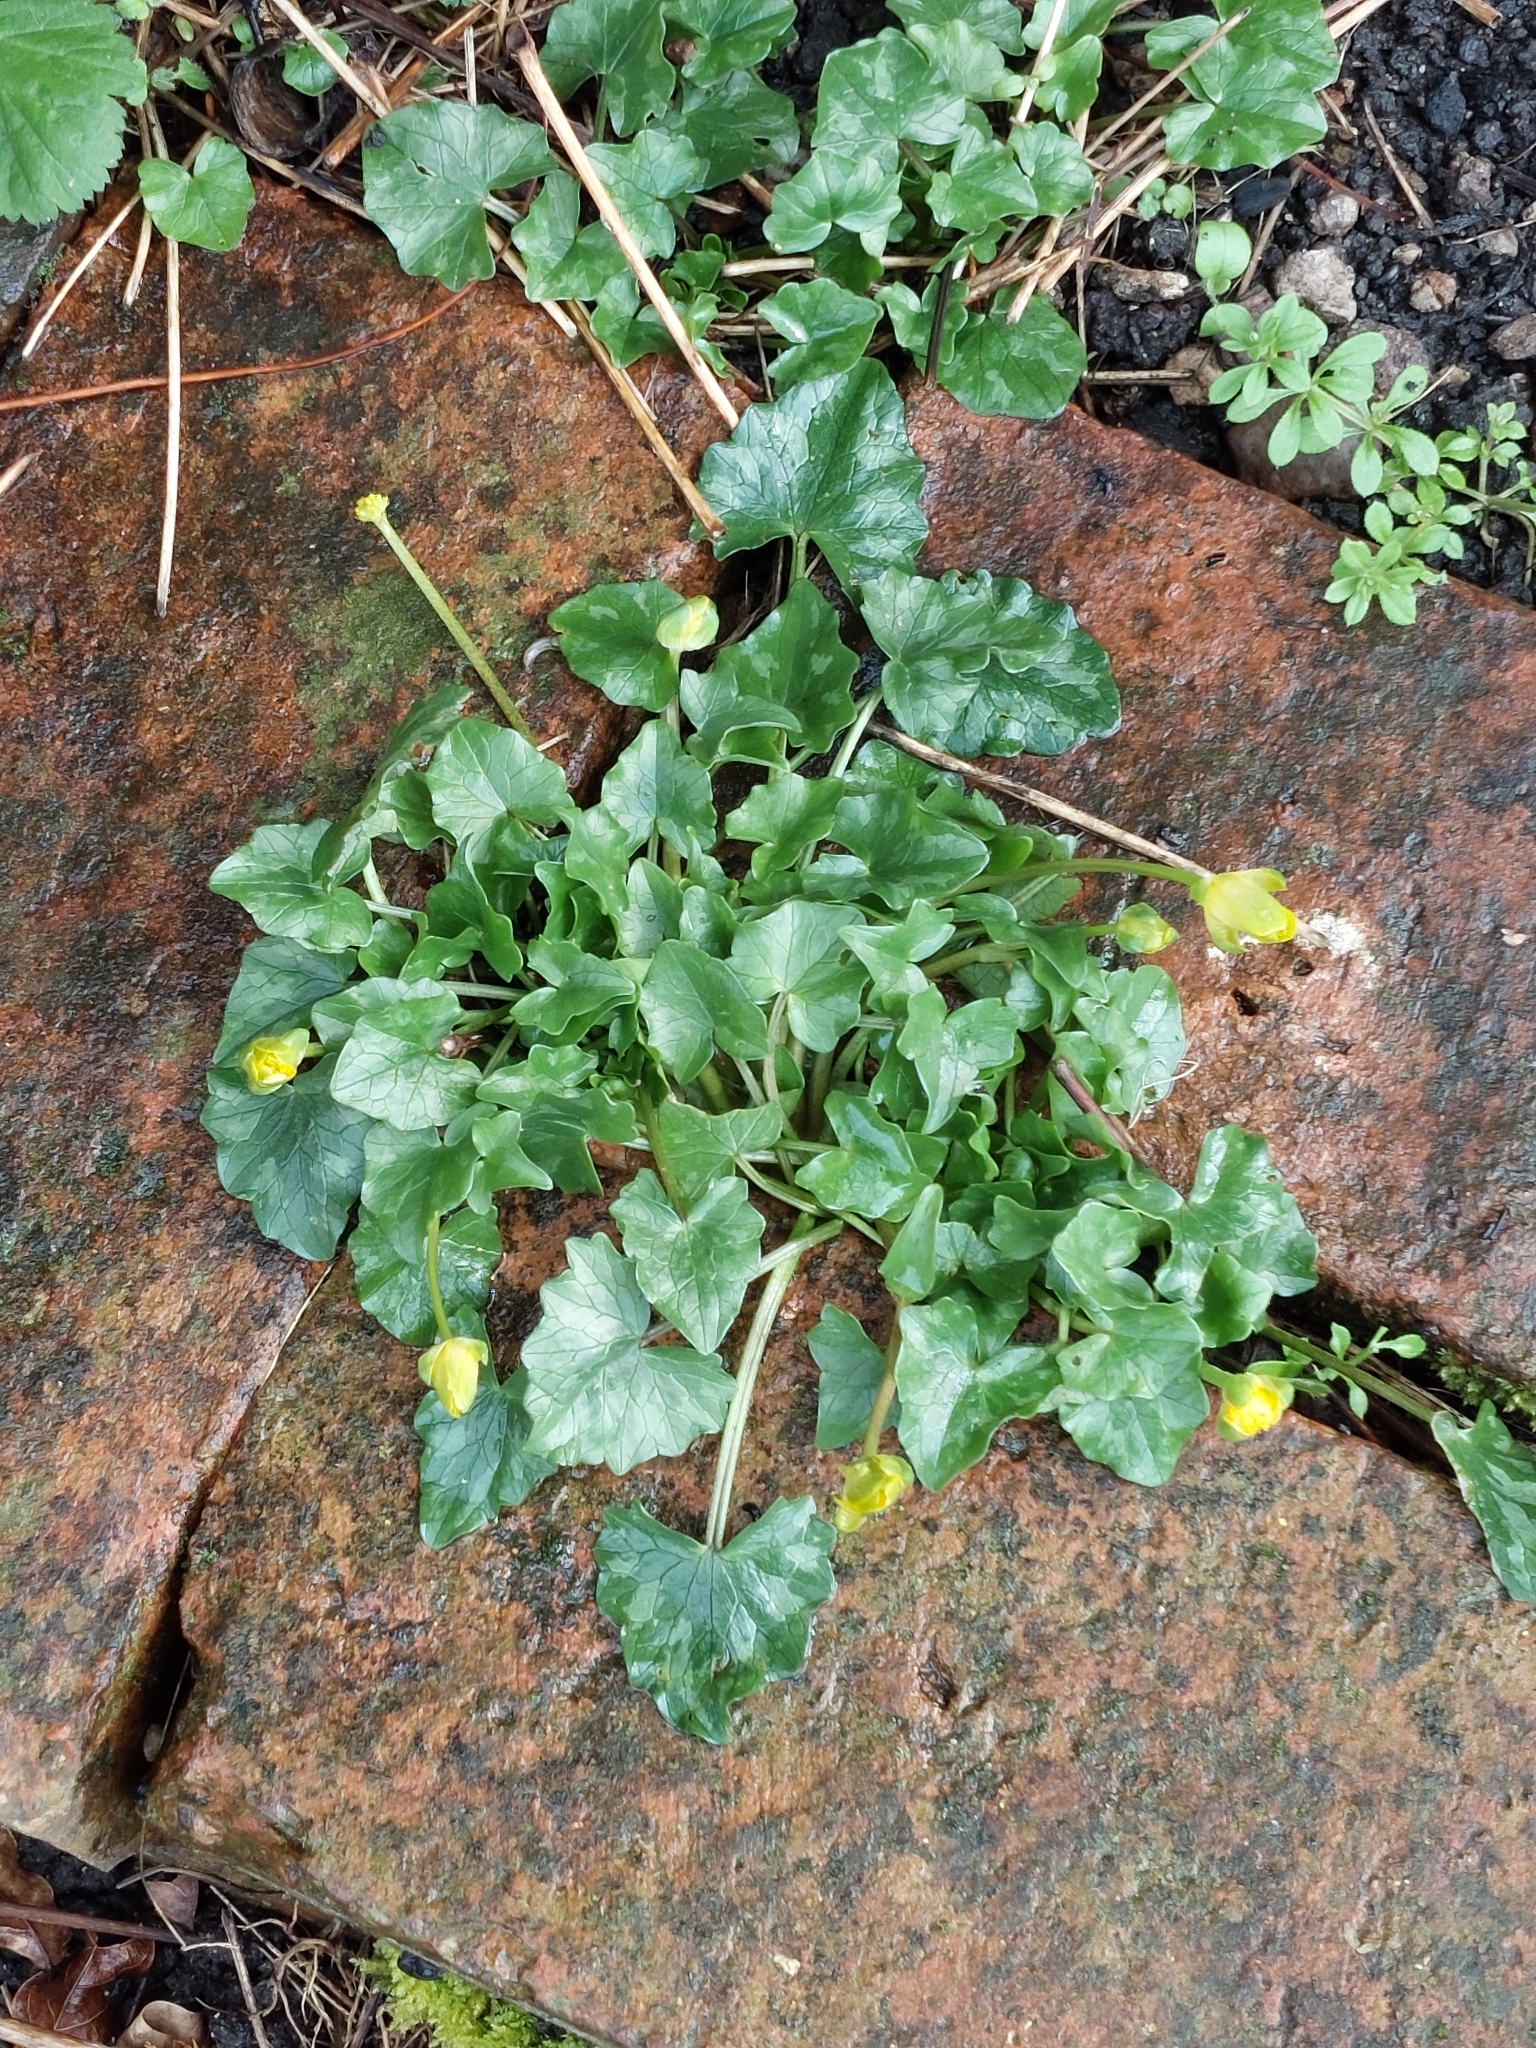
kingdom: Plantae
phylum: Tracheophyta
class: Magnoliopsida
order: Ranunculales
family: Ranunculaceae
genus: Ficaria
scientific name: Ficaria verna
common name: Lesser celandine
